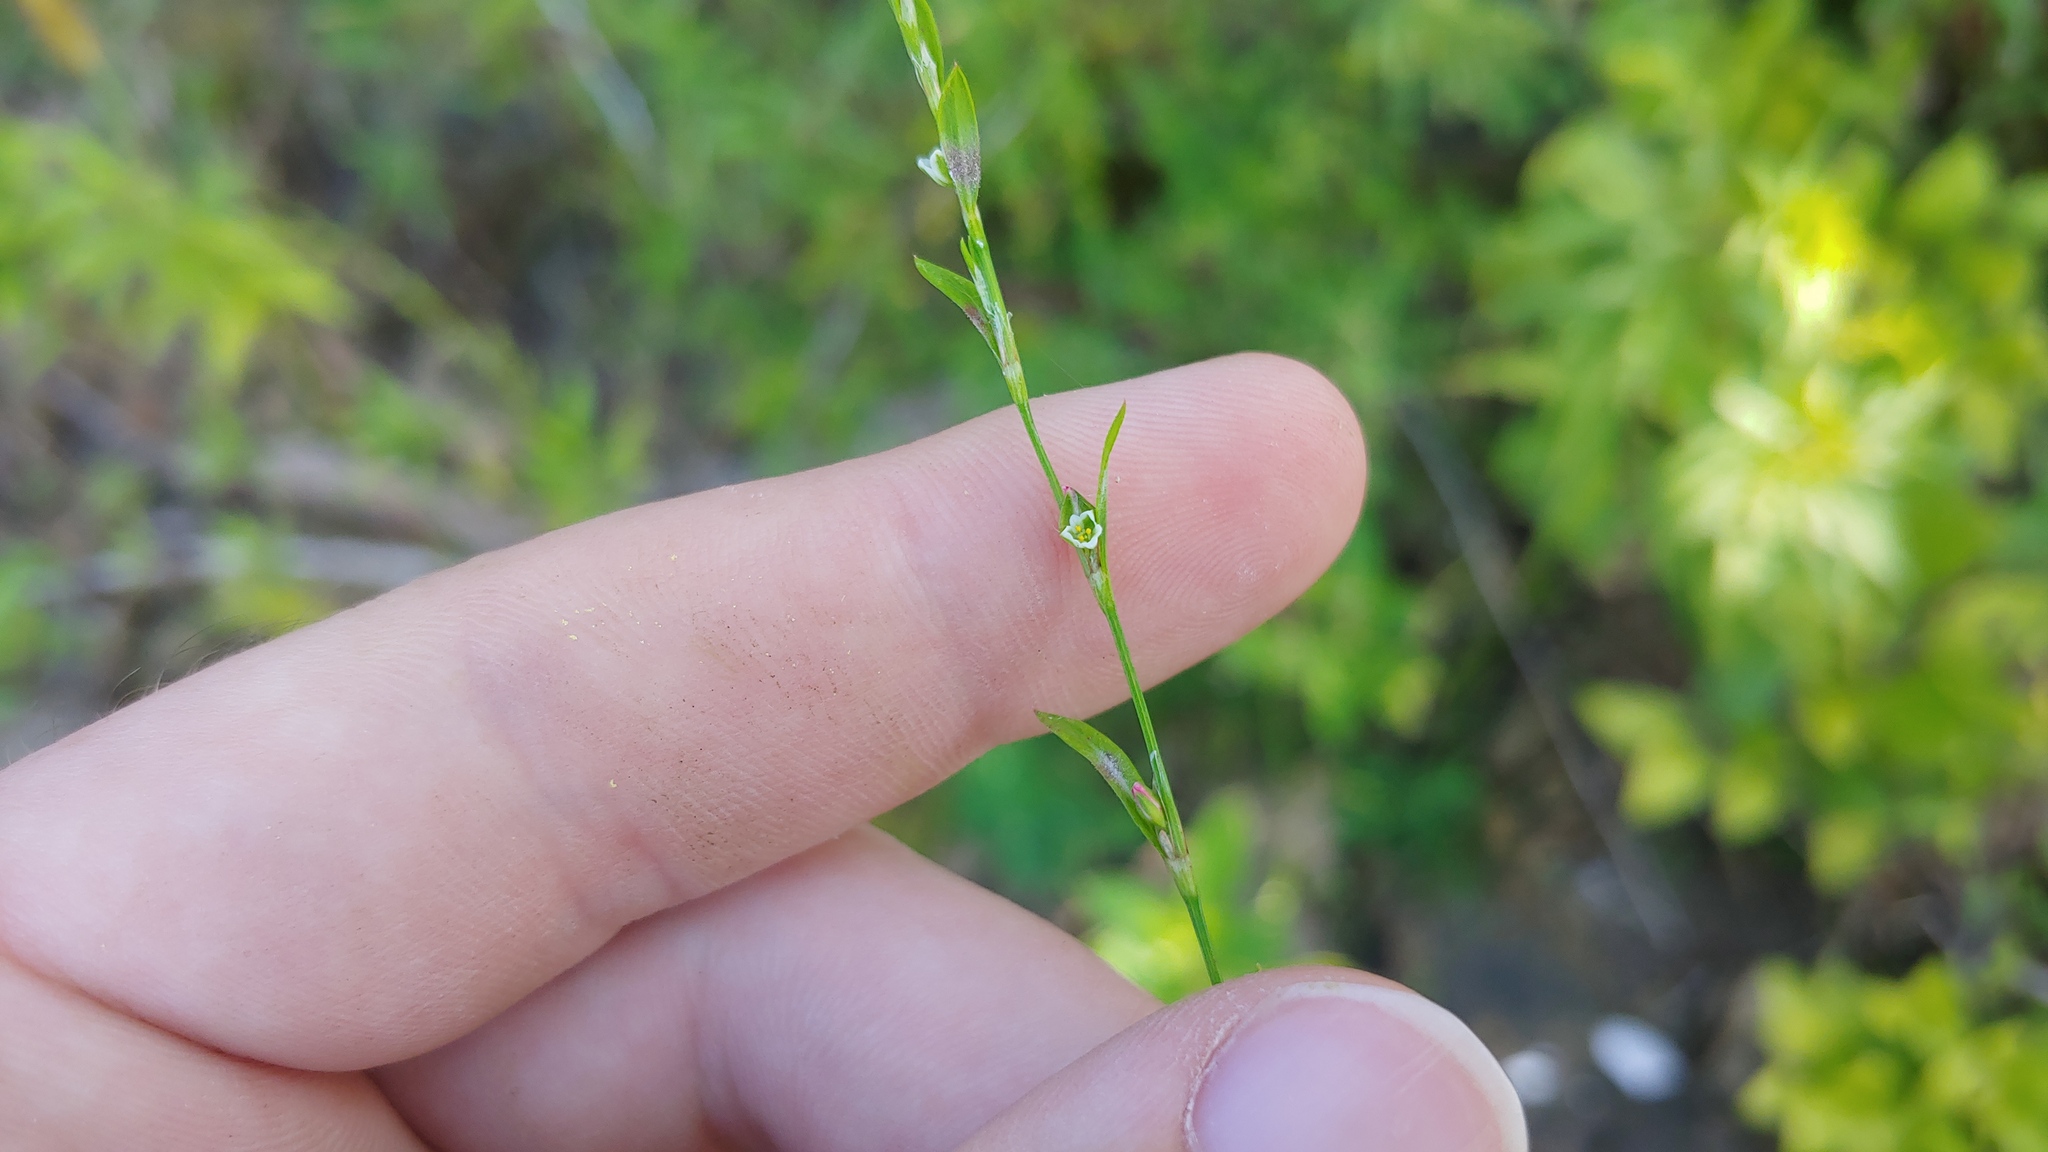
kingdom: Plantae
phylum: Tracheophyta
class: Magnoliopsida
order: Caryophyllales
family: Polygonaceae
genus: Polygonum
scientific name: Polygonum ramosissimum
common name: Bushy knotweed
